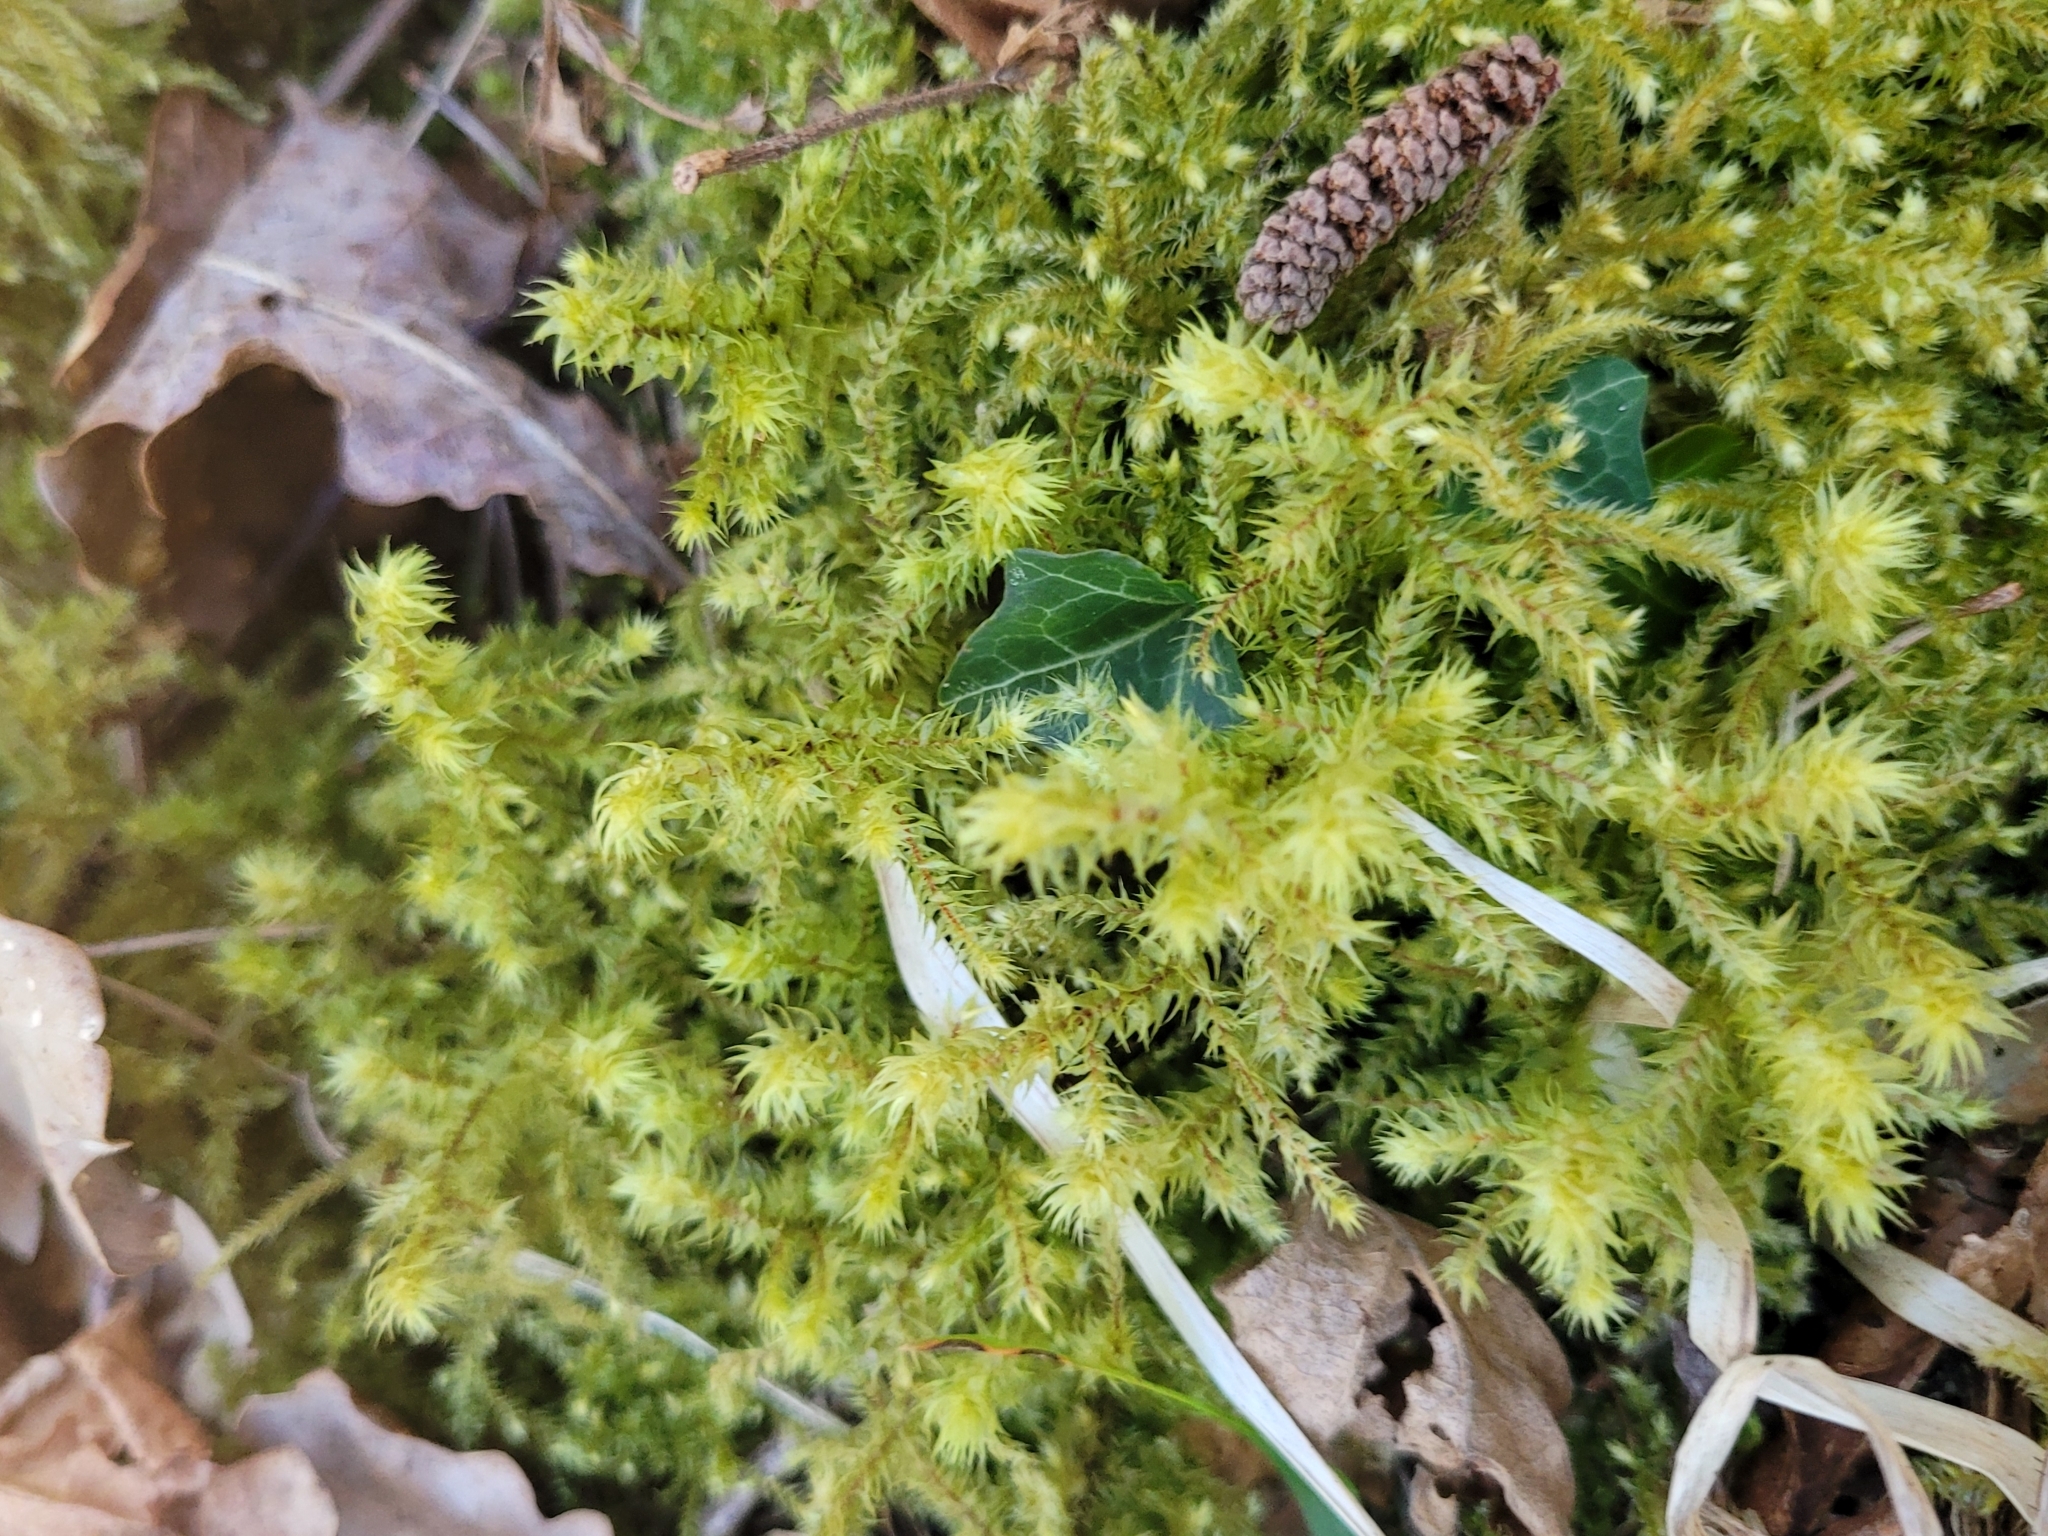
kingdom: Plantae
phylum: Bryophyta
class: Bryopsida
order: Hypnales
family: Hylocomiaceae
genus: Hylocomiadelphus
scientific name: Hylocomiadelphus triquetrus
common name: Rough goose neck moss
